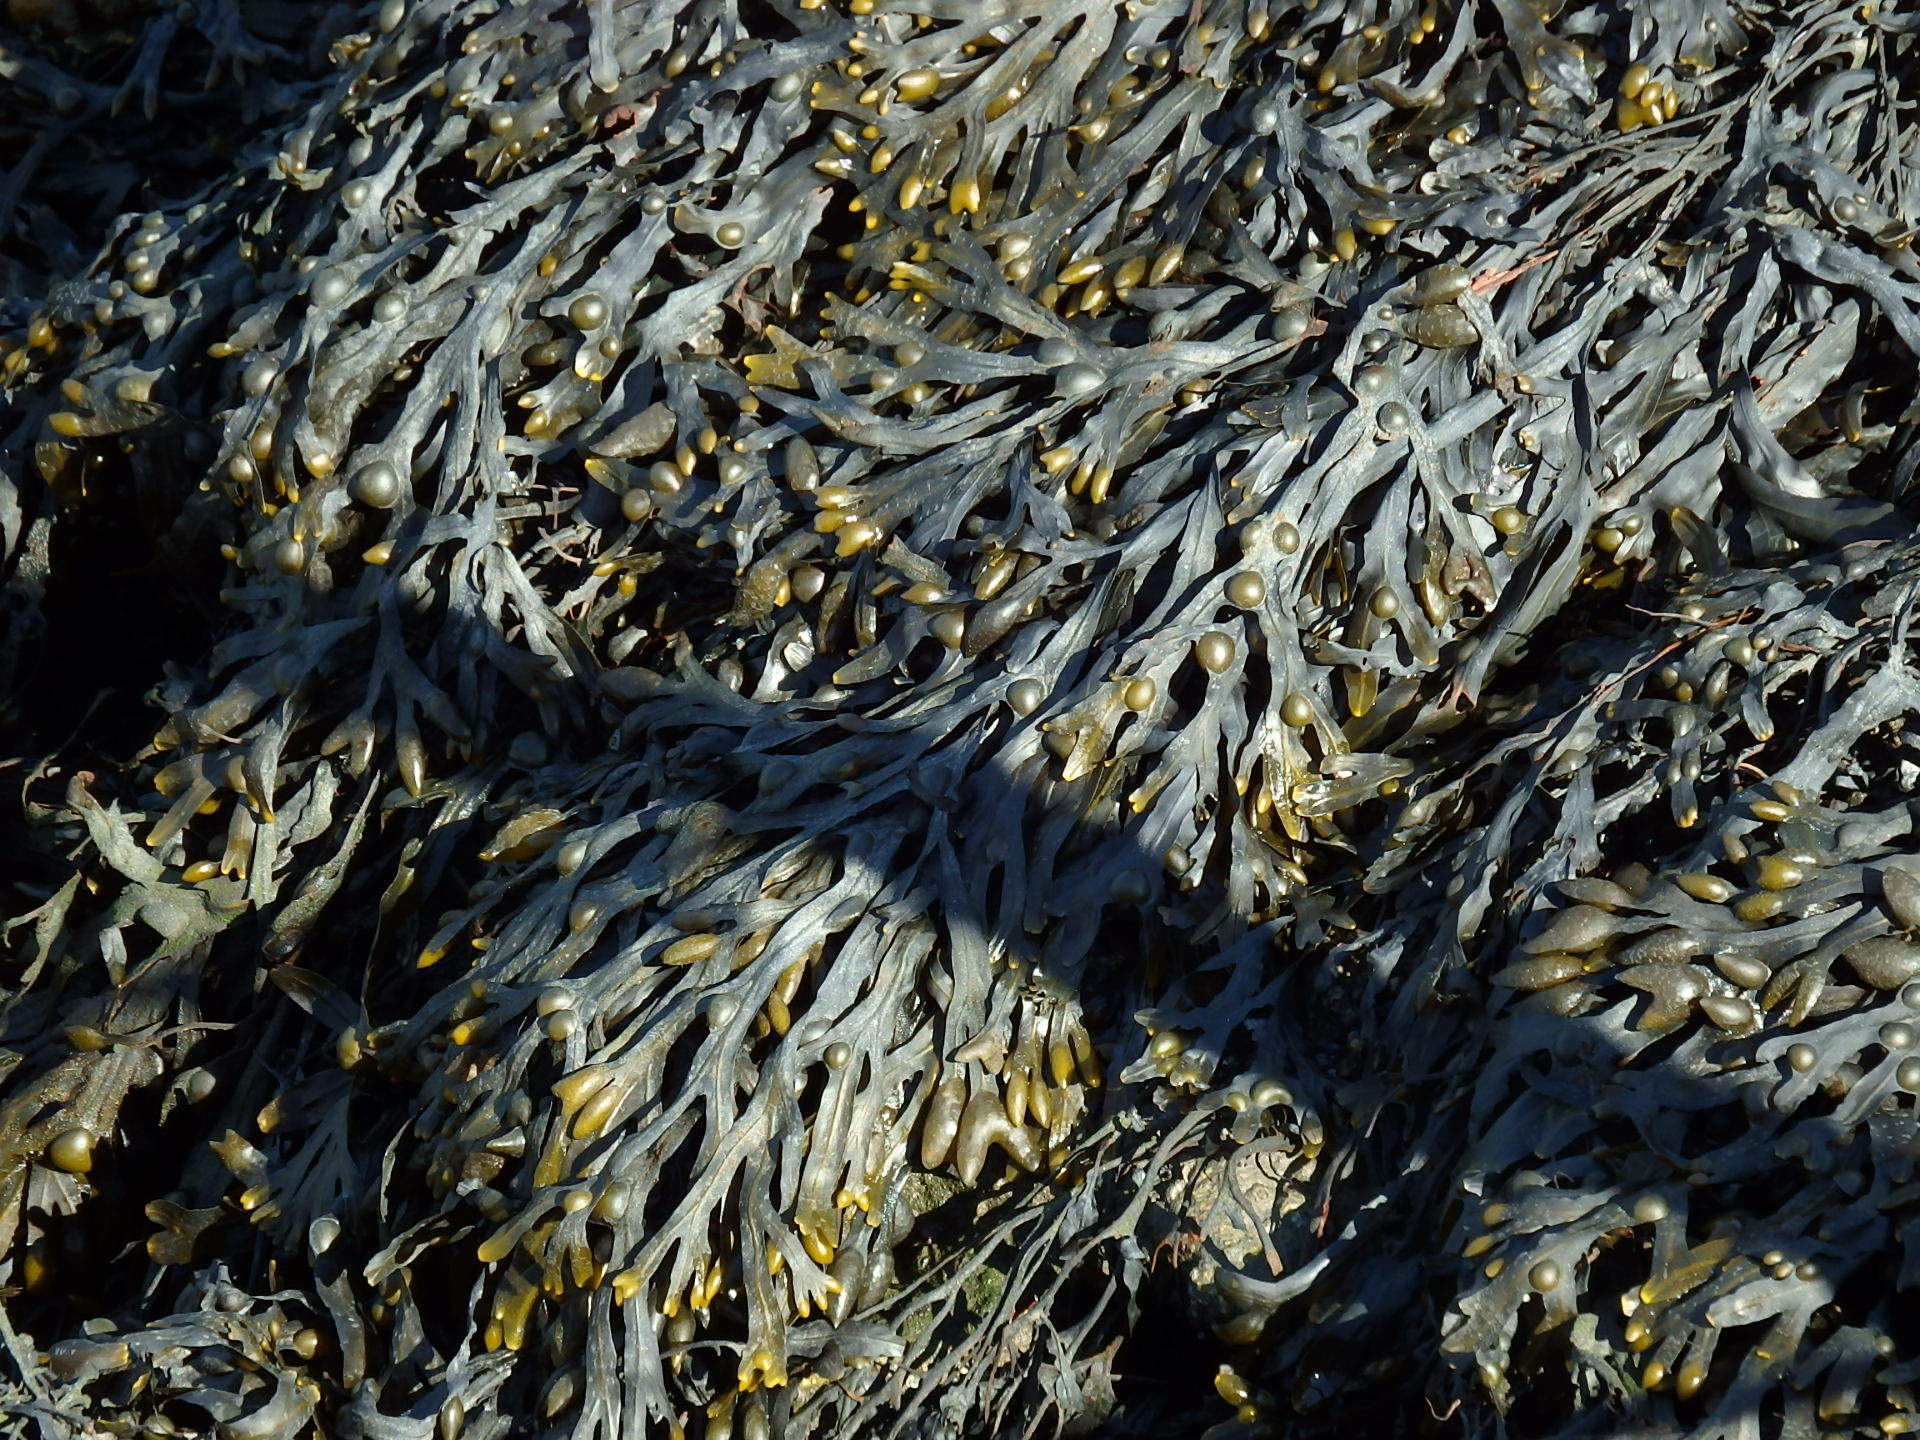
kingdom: Chromista
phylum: Ochrophyta
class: Phaeophyceae
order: Fucales
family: Fucaceae
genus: Fucus
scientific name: Fucus vesiculosus
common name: Bladder wrack
